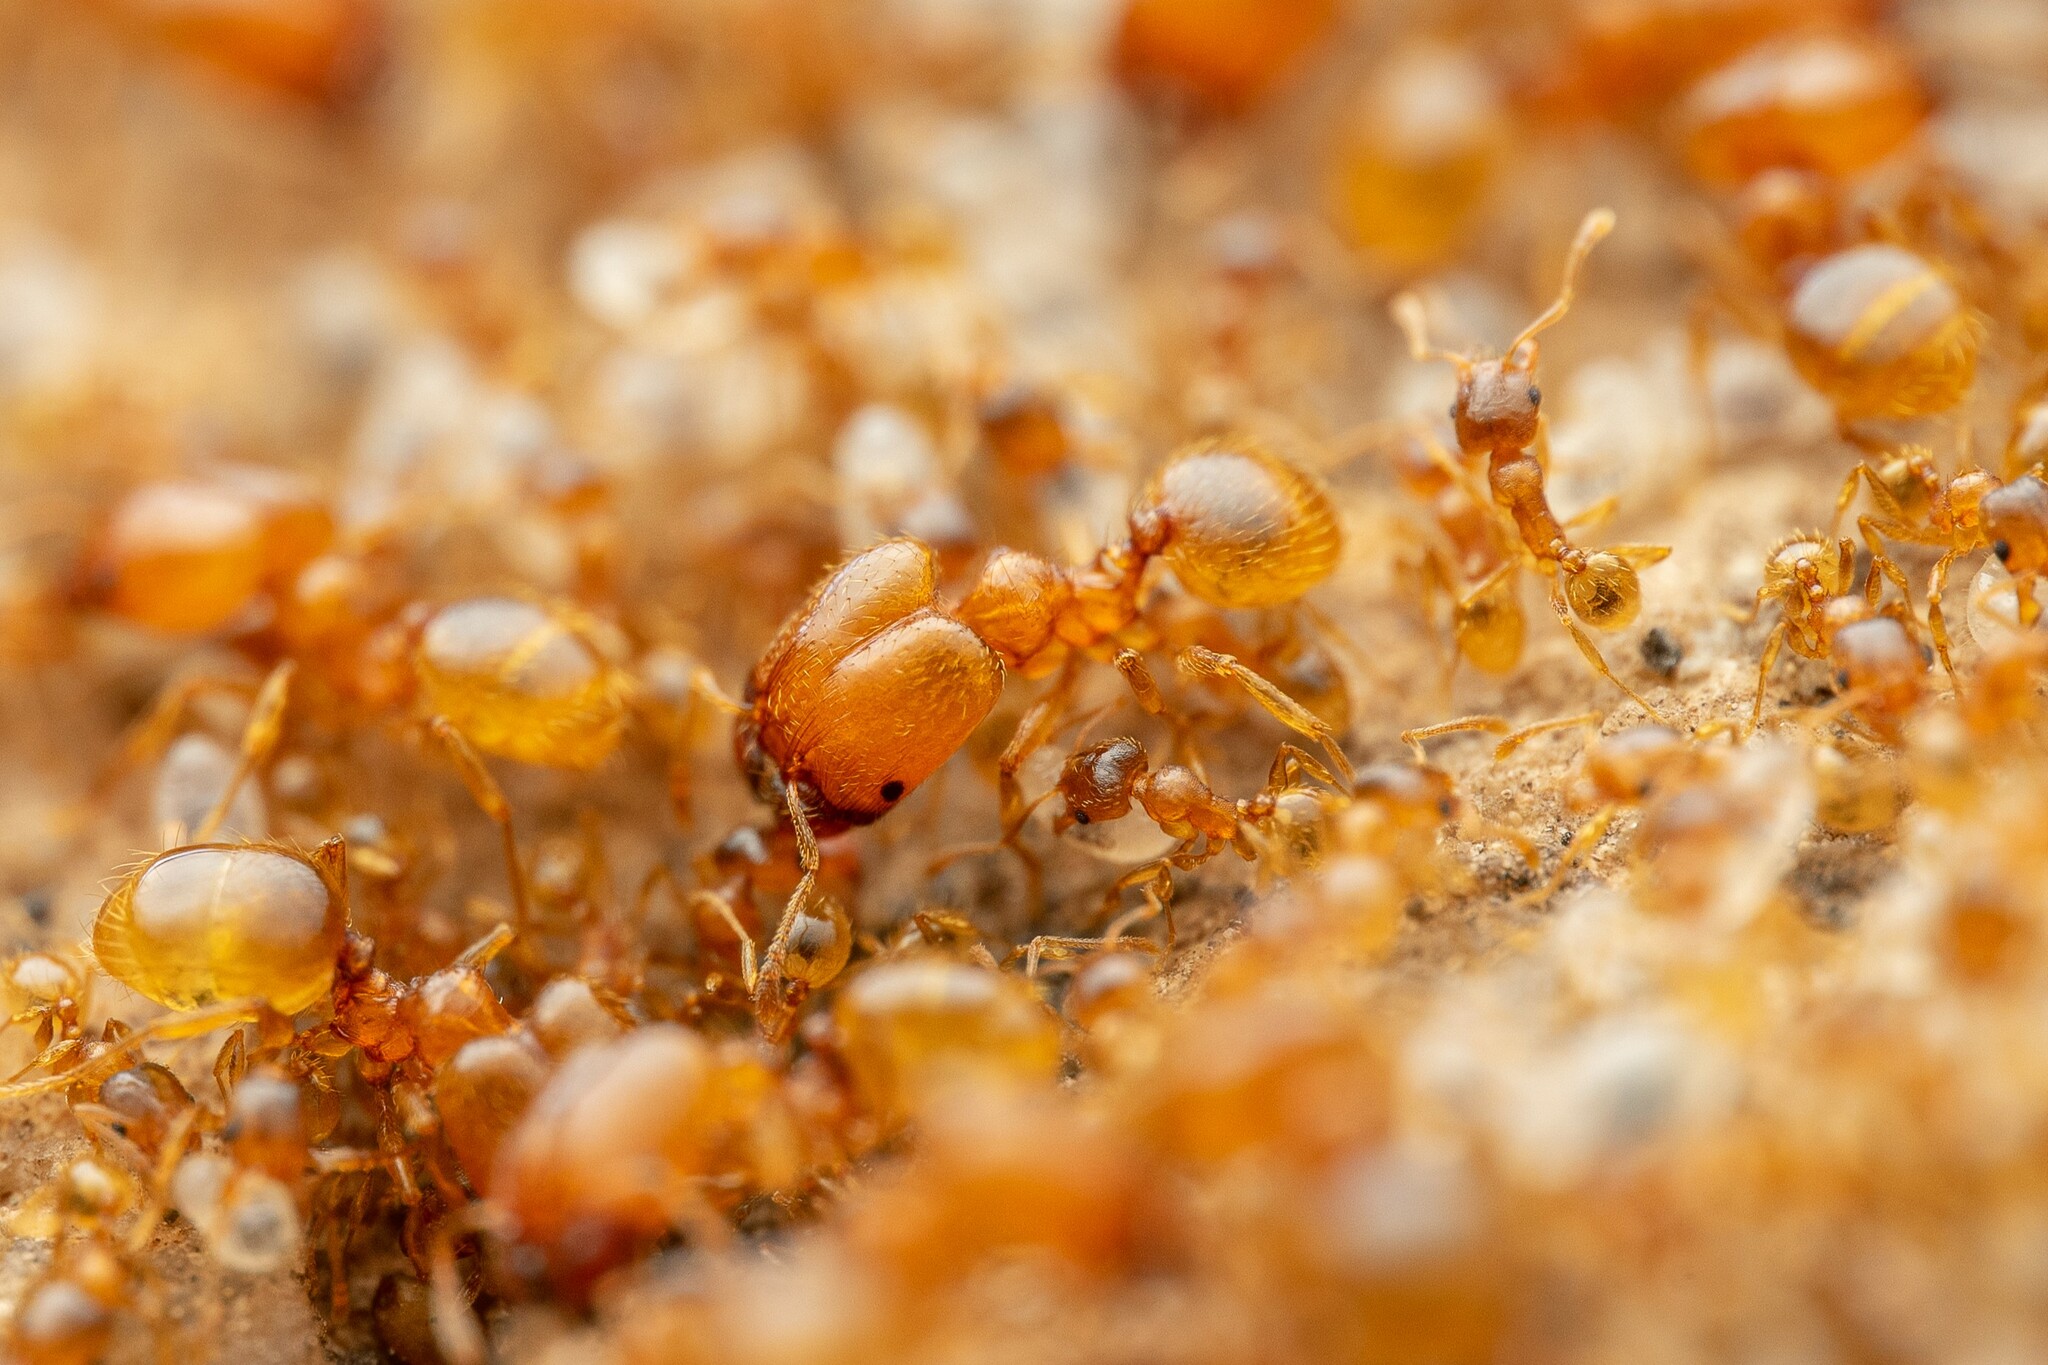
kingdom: Animalia
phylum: Arthropoda
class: Insecta
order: Hymenoptera
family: Formicidae
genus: Pheidole
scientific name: Pheidole cerebrosior
